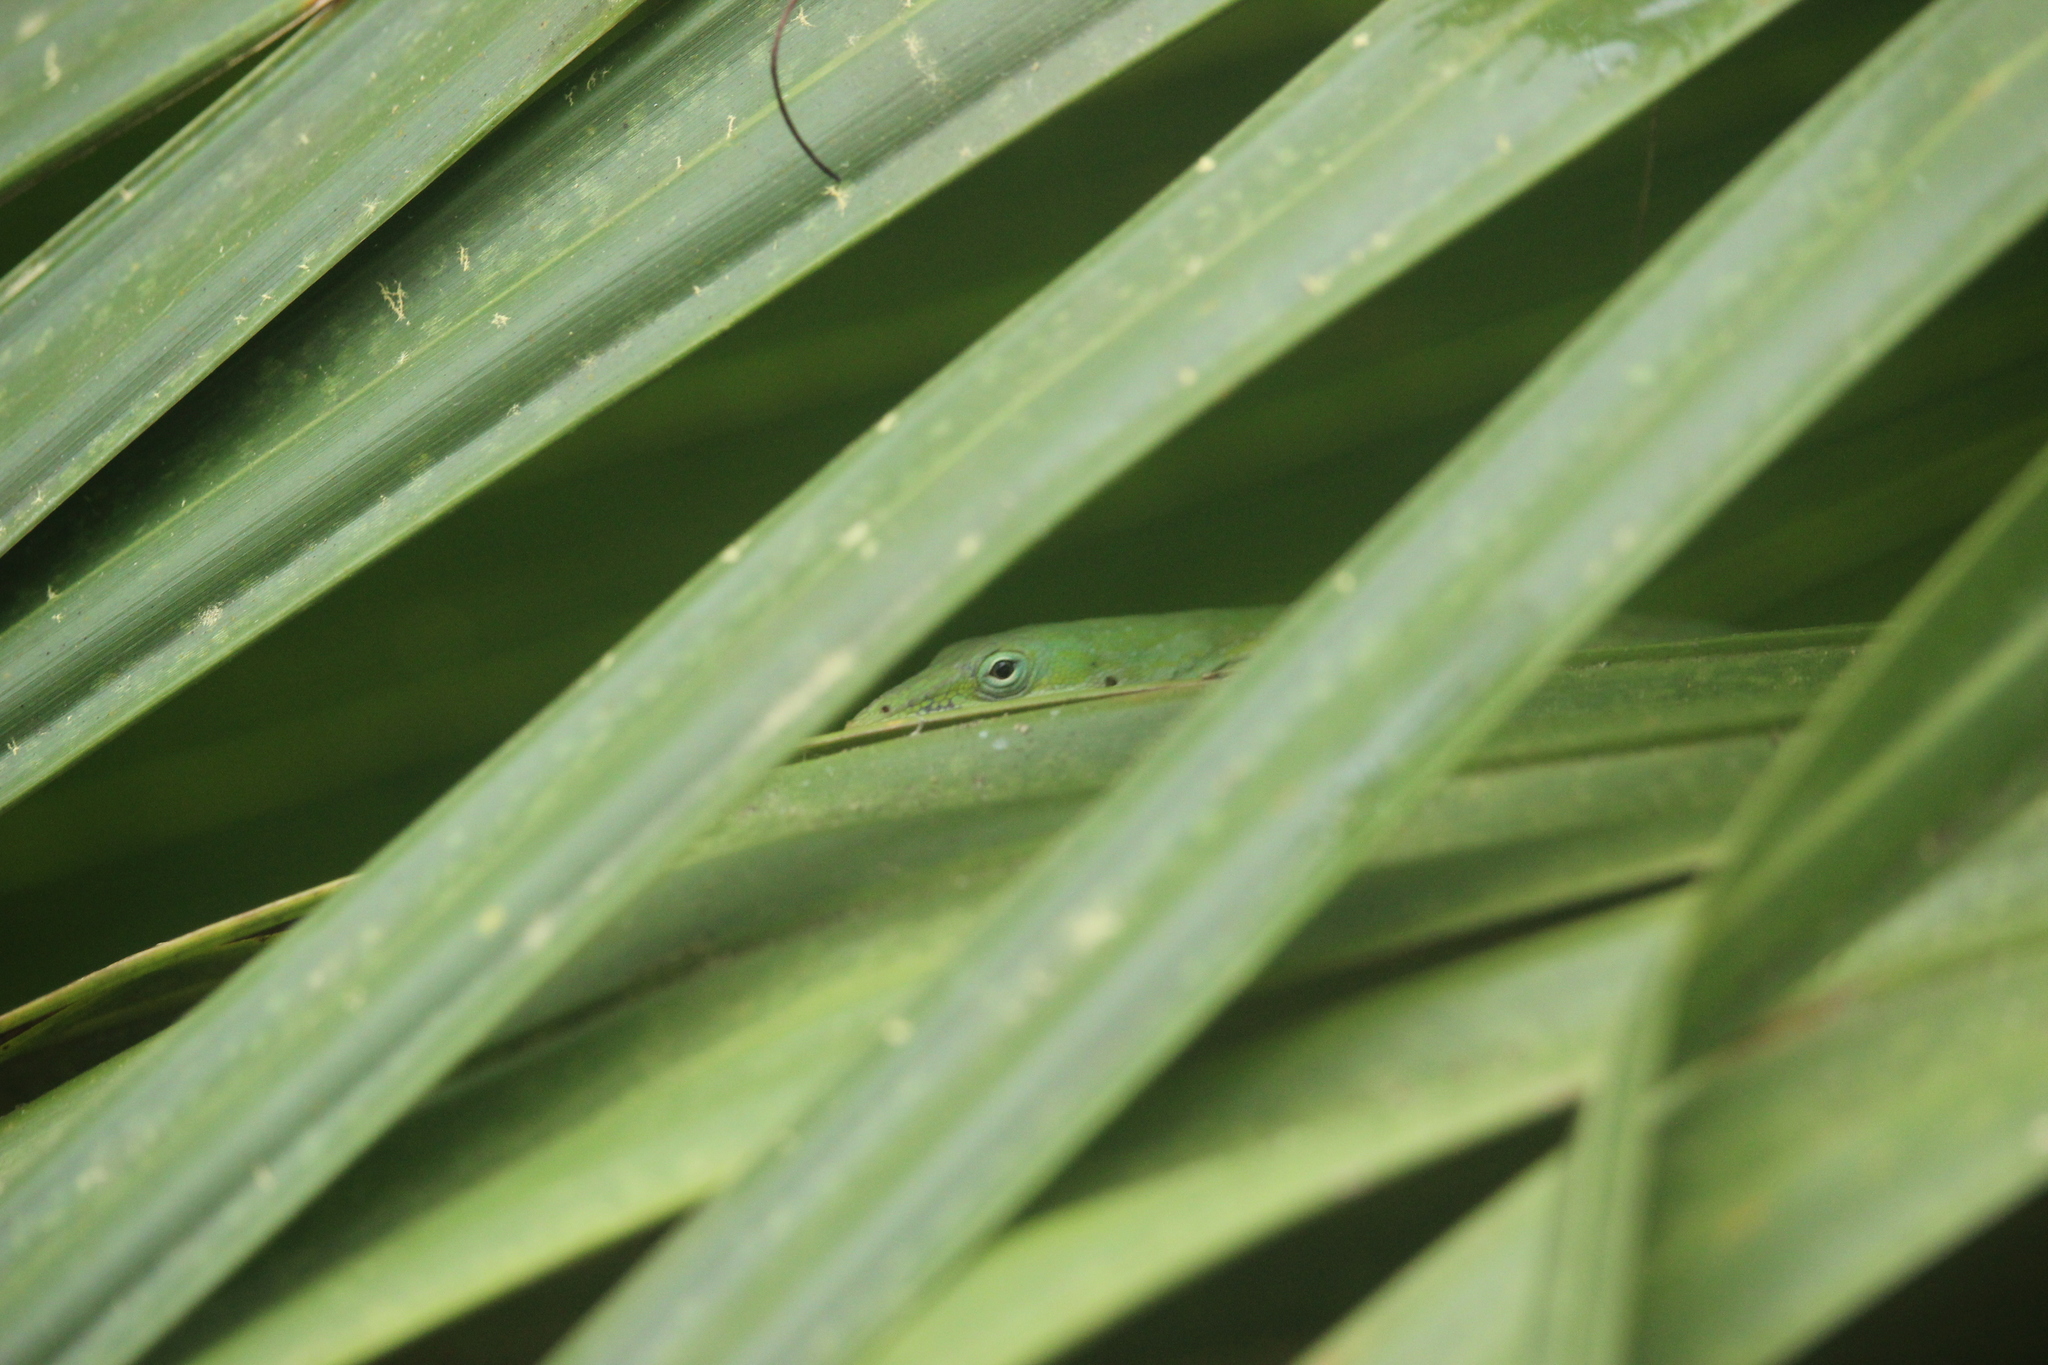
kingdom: Animalia
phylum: Chordata
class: Squamata
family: Dactyloidae
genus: Anolis
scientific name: Anolis carolinensis
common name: Green anole
